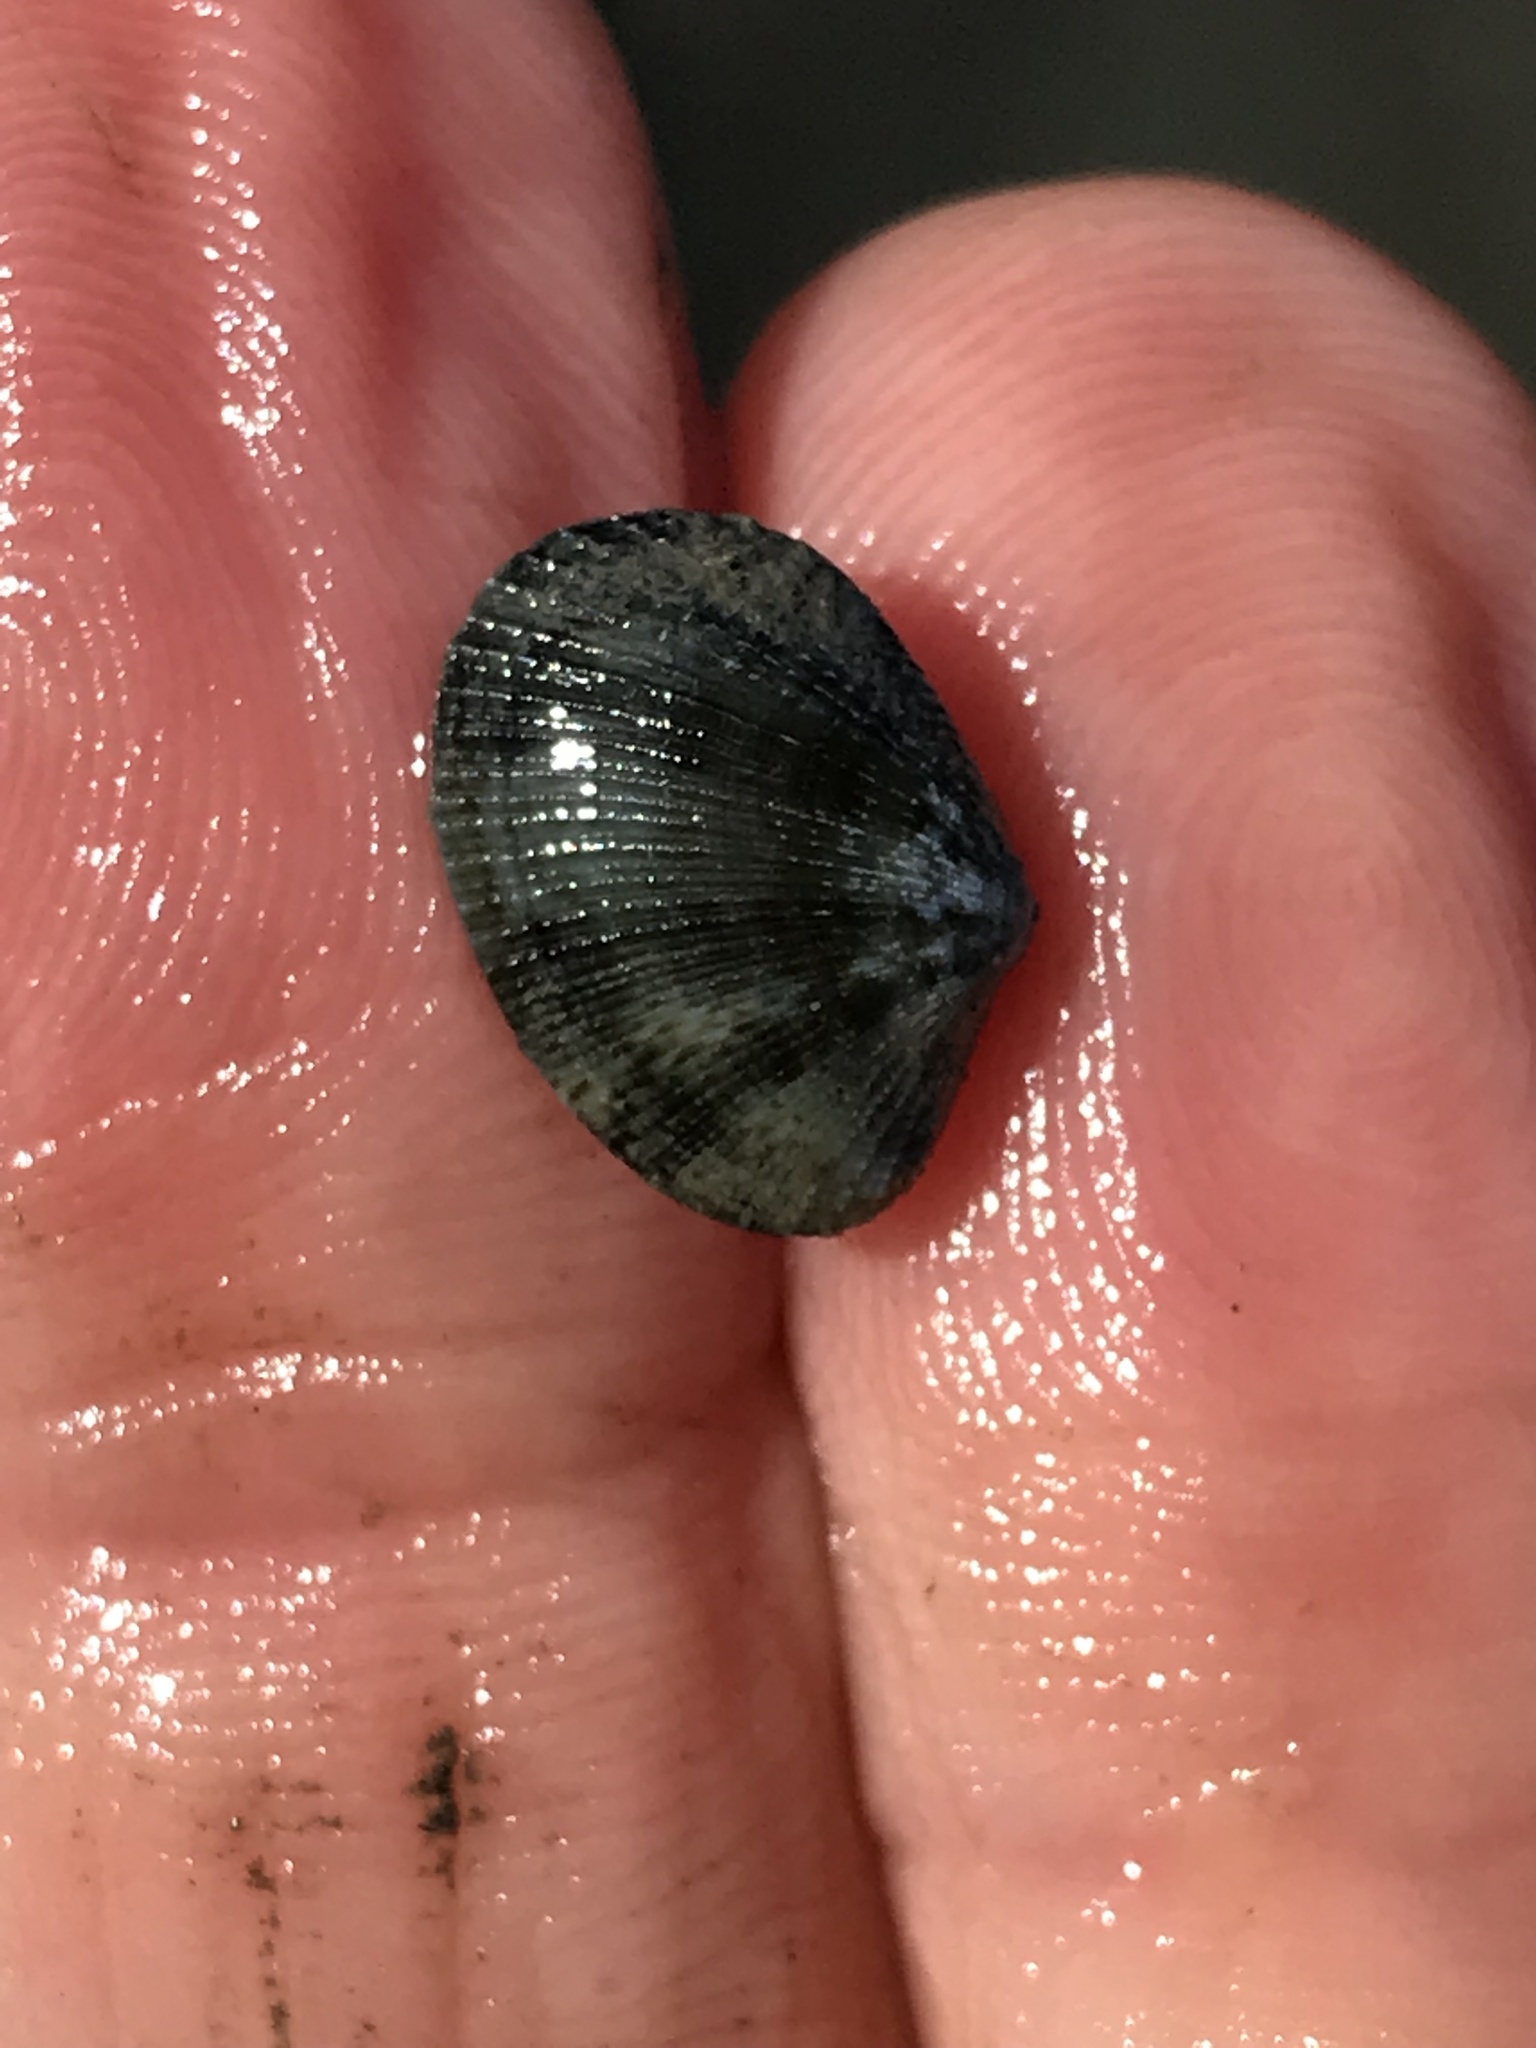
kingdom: Animalia
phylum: Mollusca
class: Bivalvia
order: Venerida
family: Veneridae
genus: Ruditapes
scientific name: Ruditapes philippinarum
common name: Manila clam
